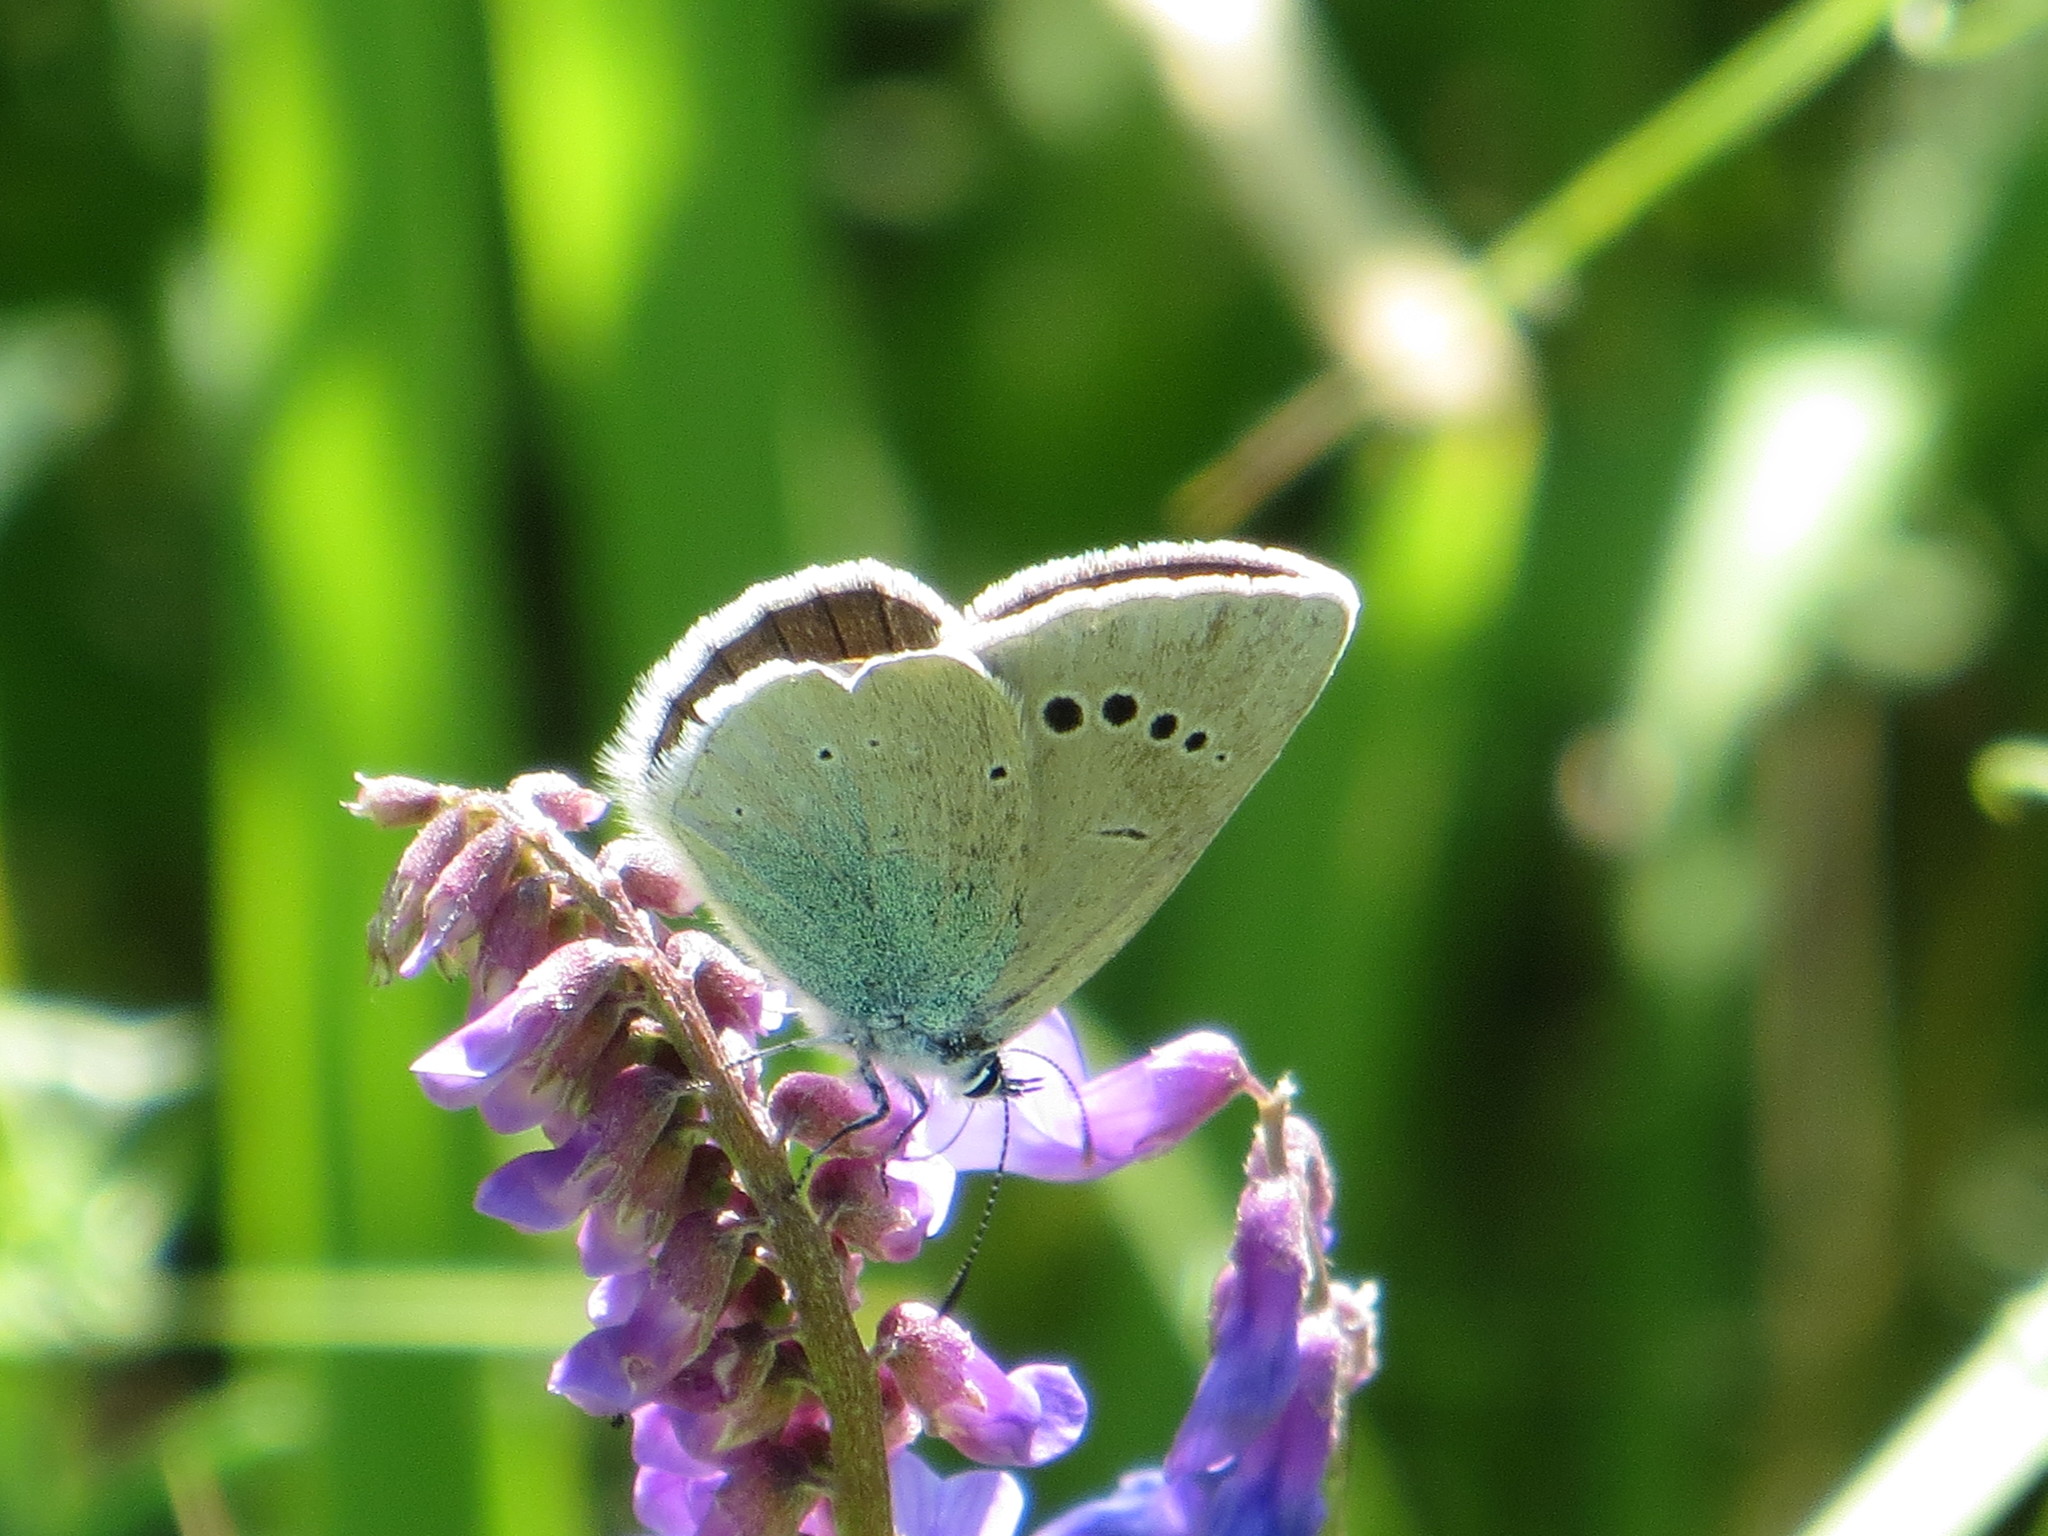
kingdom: Animalia
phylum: Arthropoda
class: Insecta
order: Lepidoptera
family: Lycaenidae
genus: Glaucopsyche
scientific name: Glaucopsyche alexis
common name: Green-underside blue
